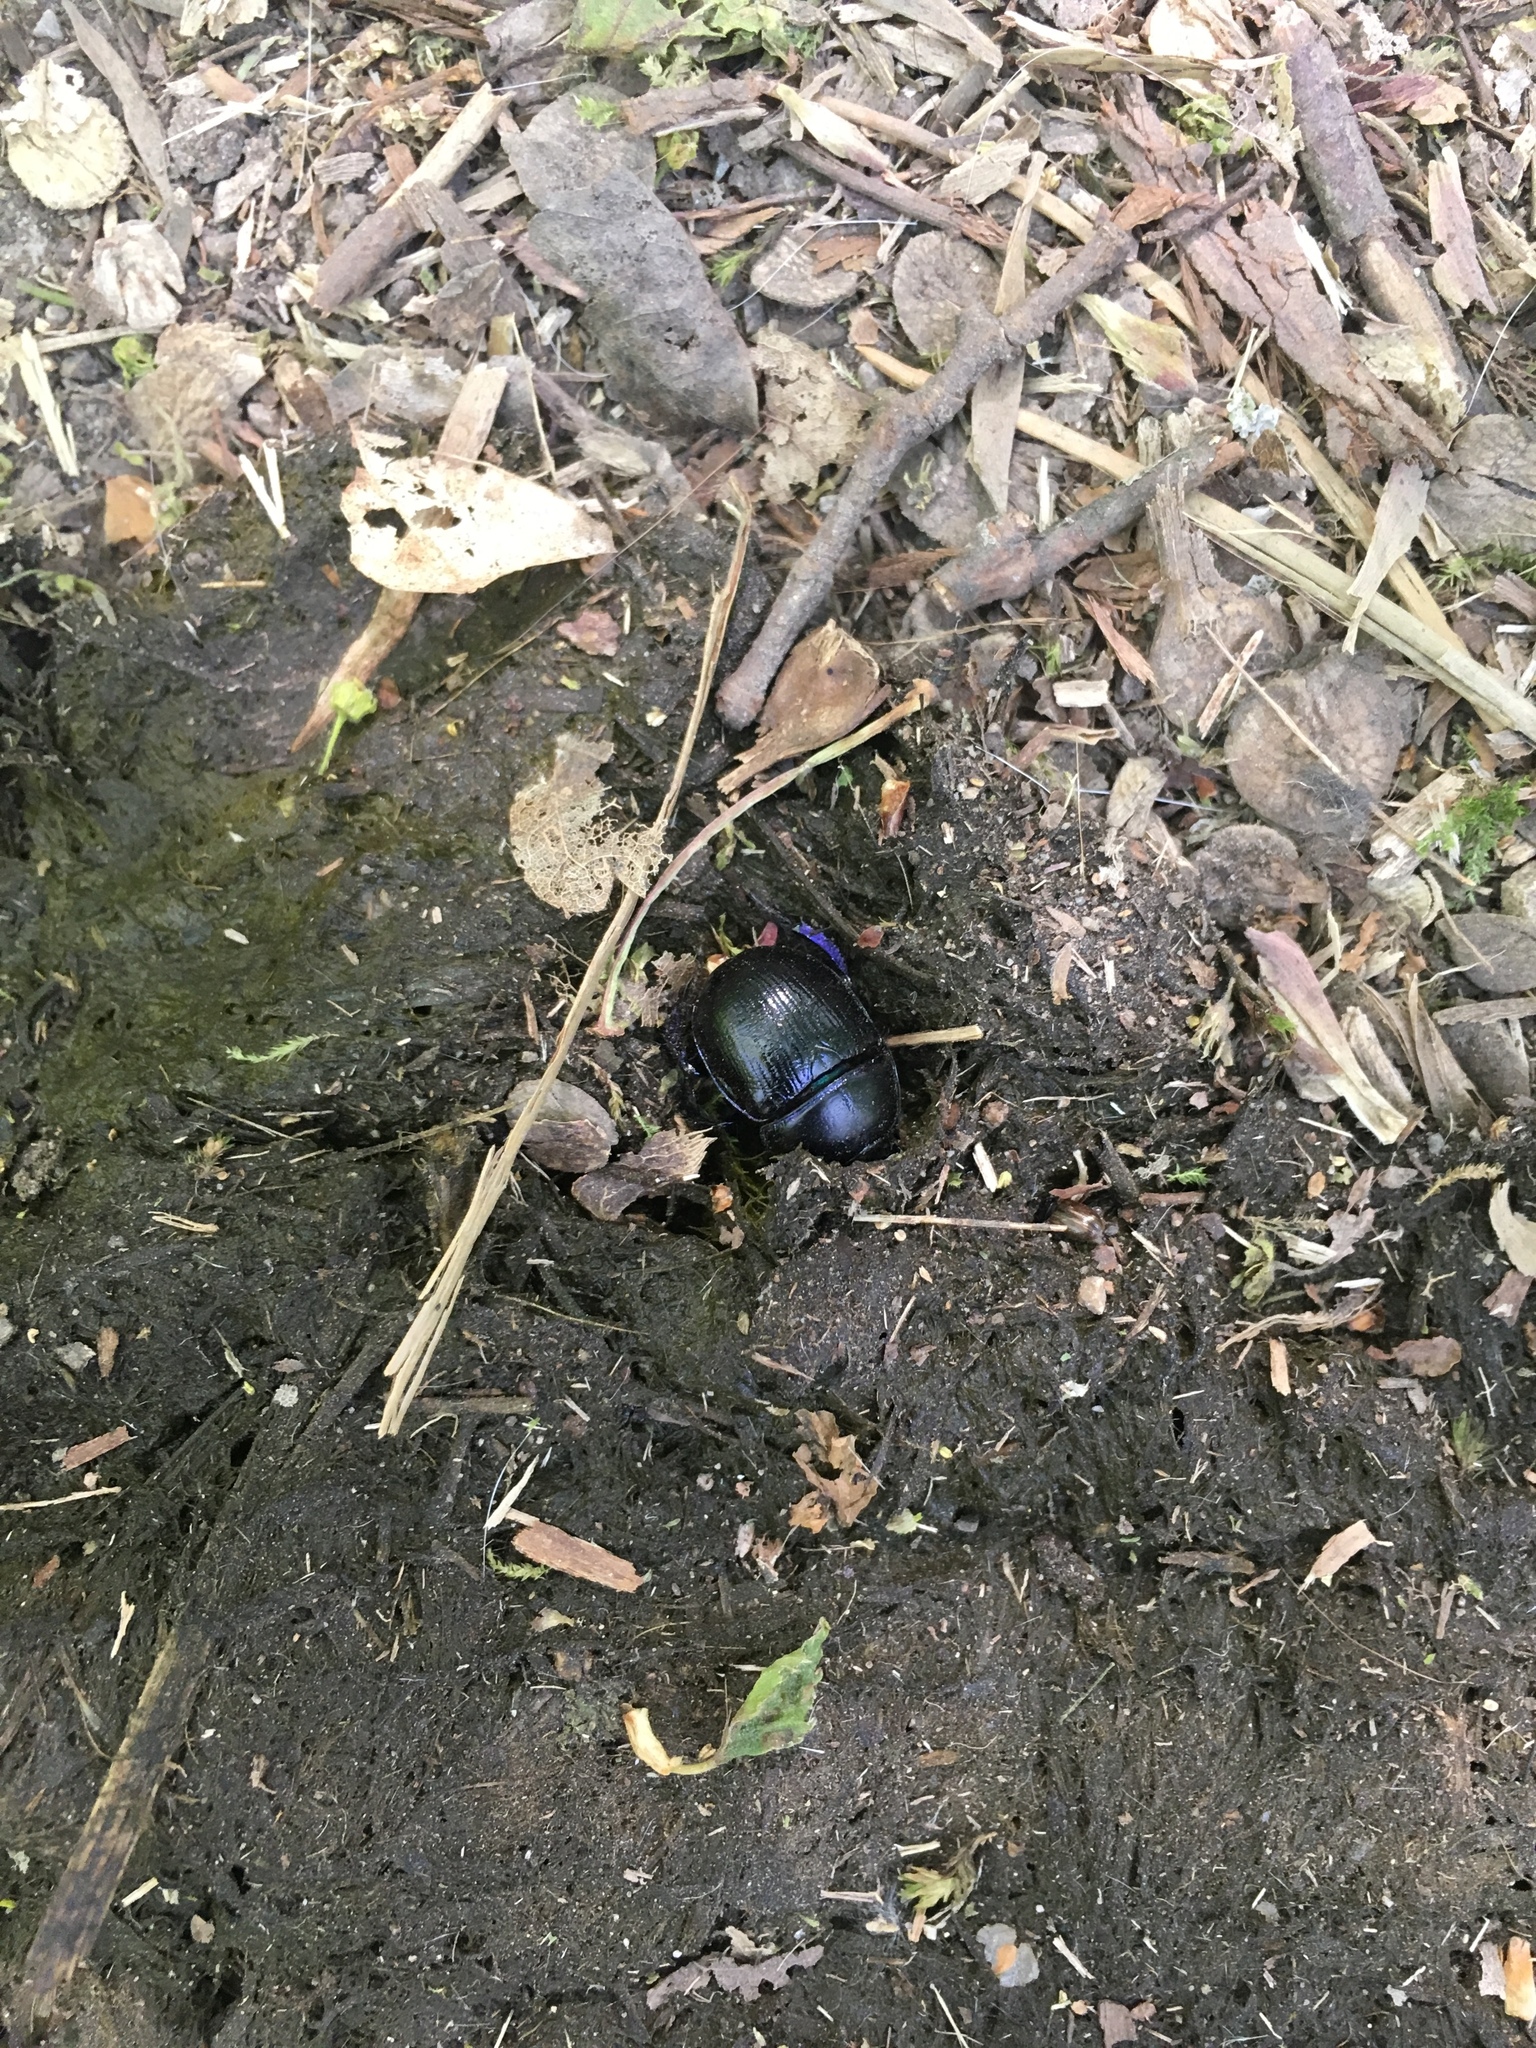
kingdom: Animalia
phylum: Arthropoda
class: Insecta
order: Coleoptera
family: Geotrupidae
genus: Anoplotrupes
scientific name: Anoplotrupes stercorosus
